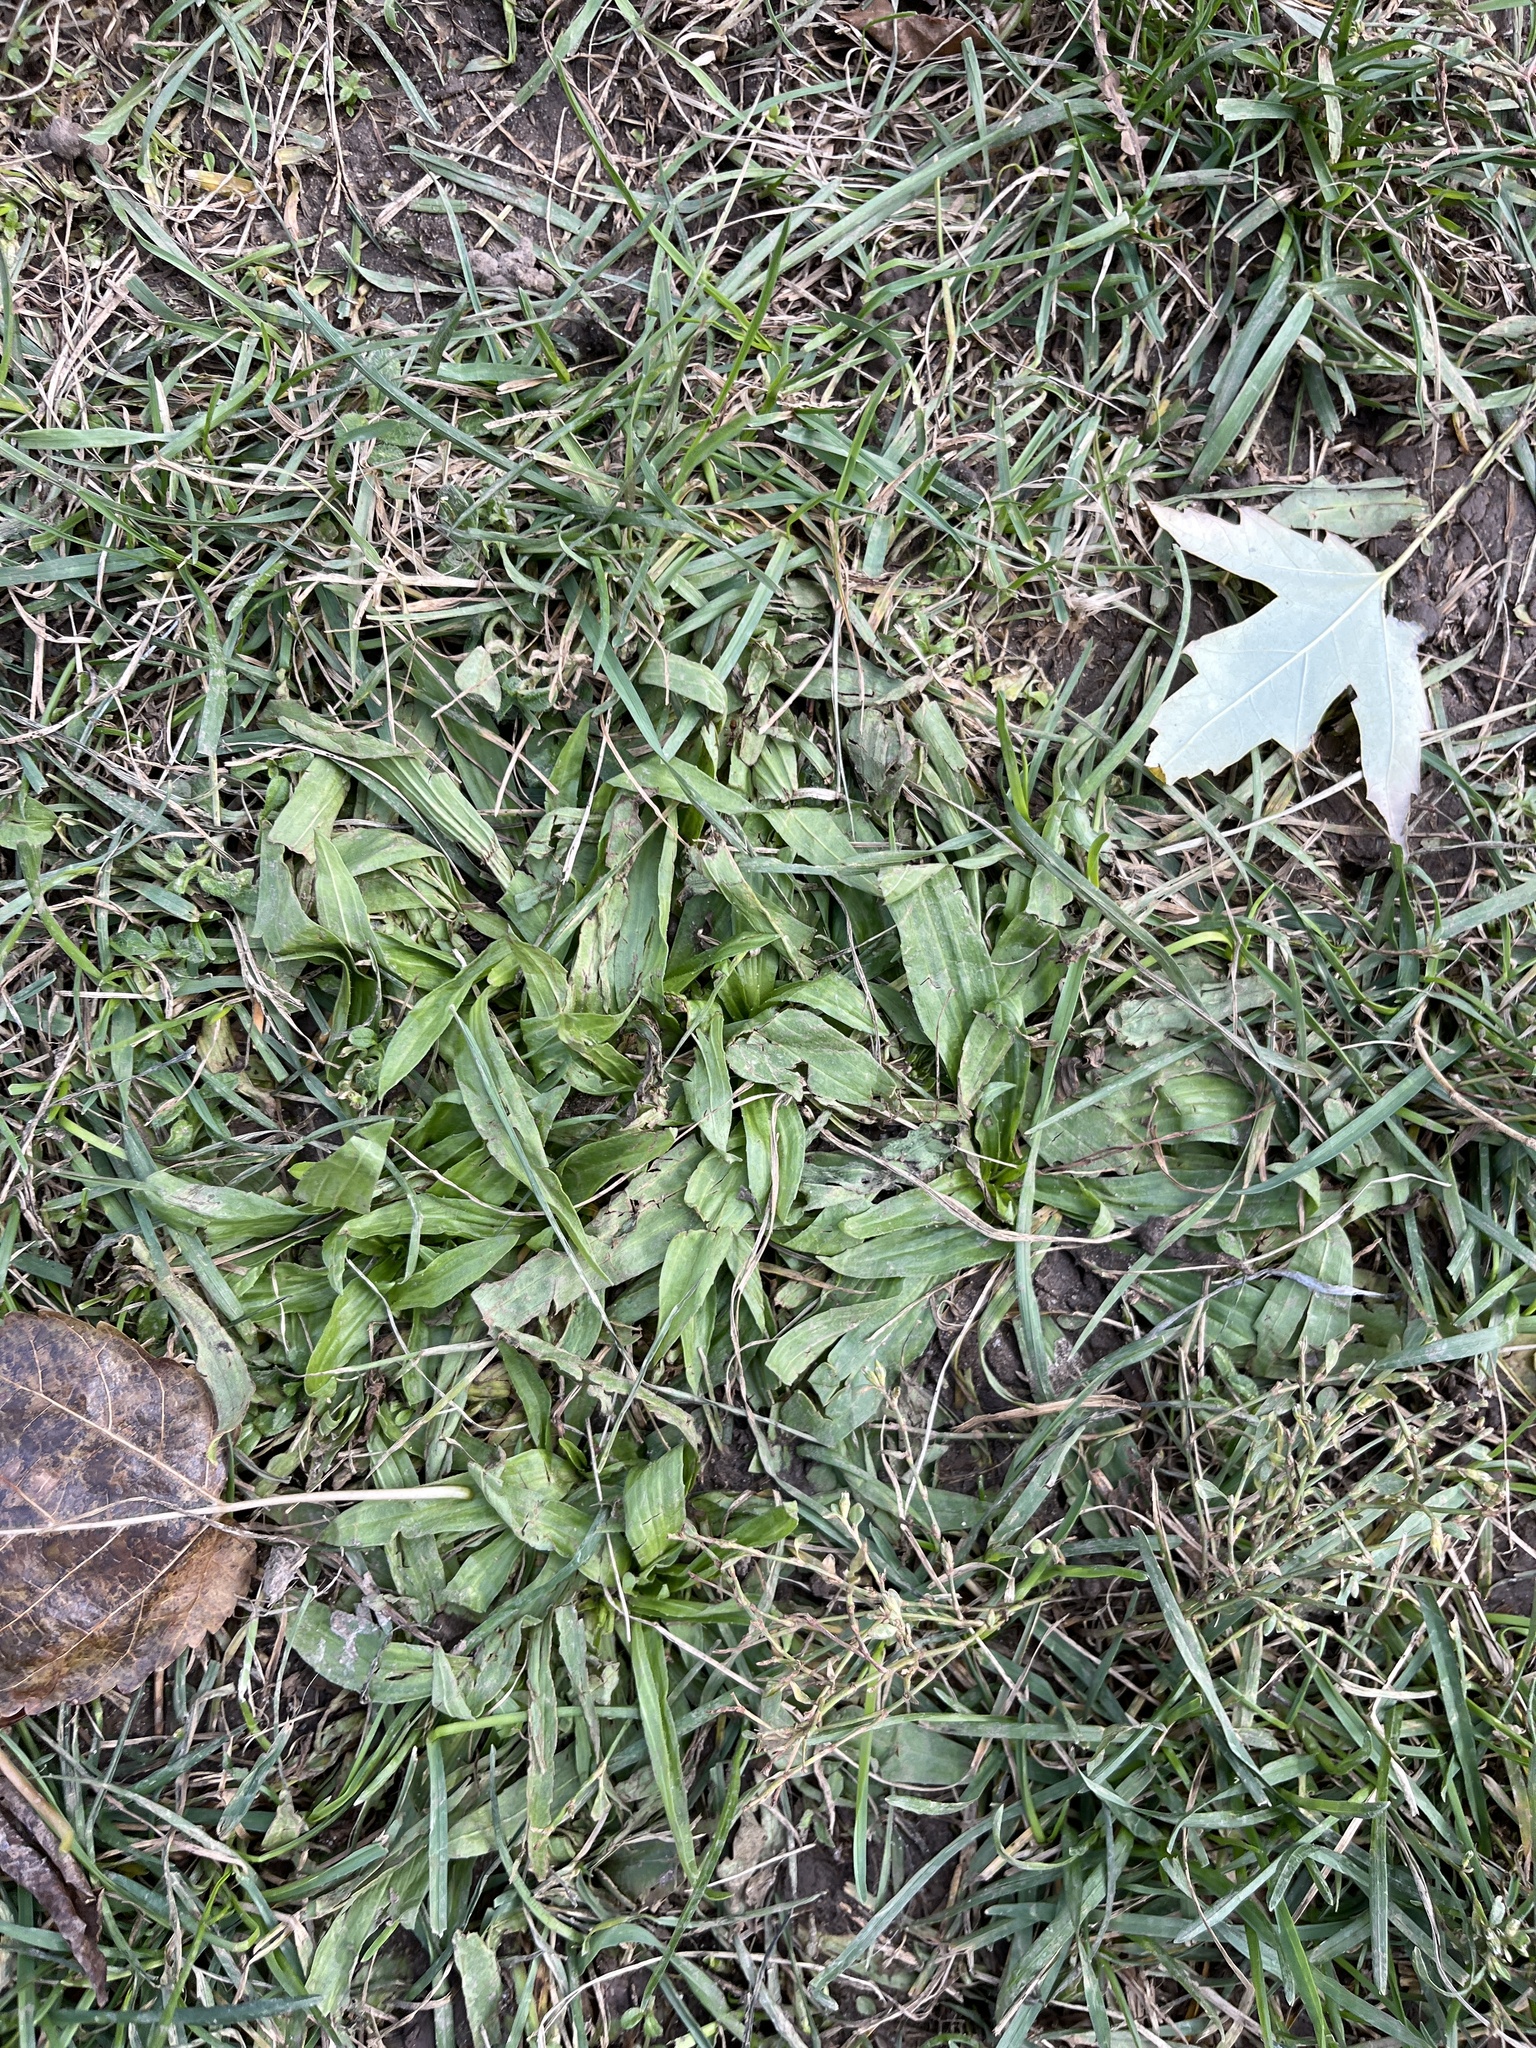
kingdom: Plantae
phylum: Tracheophyta
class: Magnoliopsida
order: Lamiales
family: Plantaginaceae
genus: Plantago
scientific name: Plantago lanceolata
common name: Ribwort plantain
